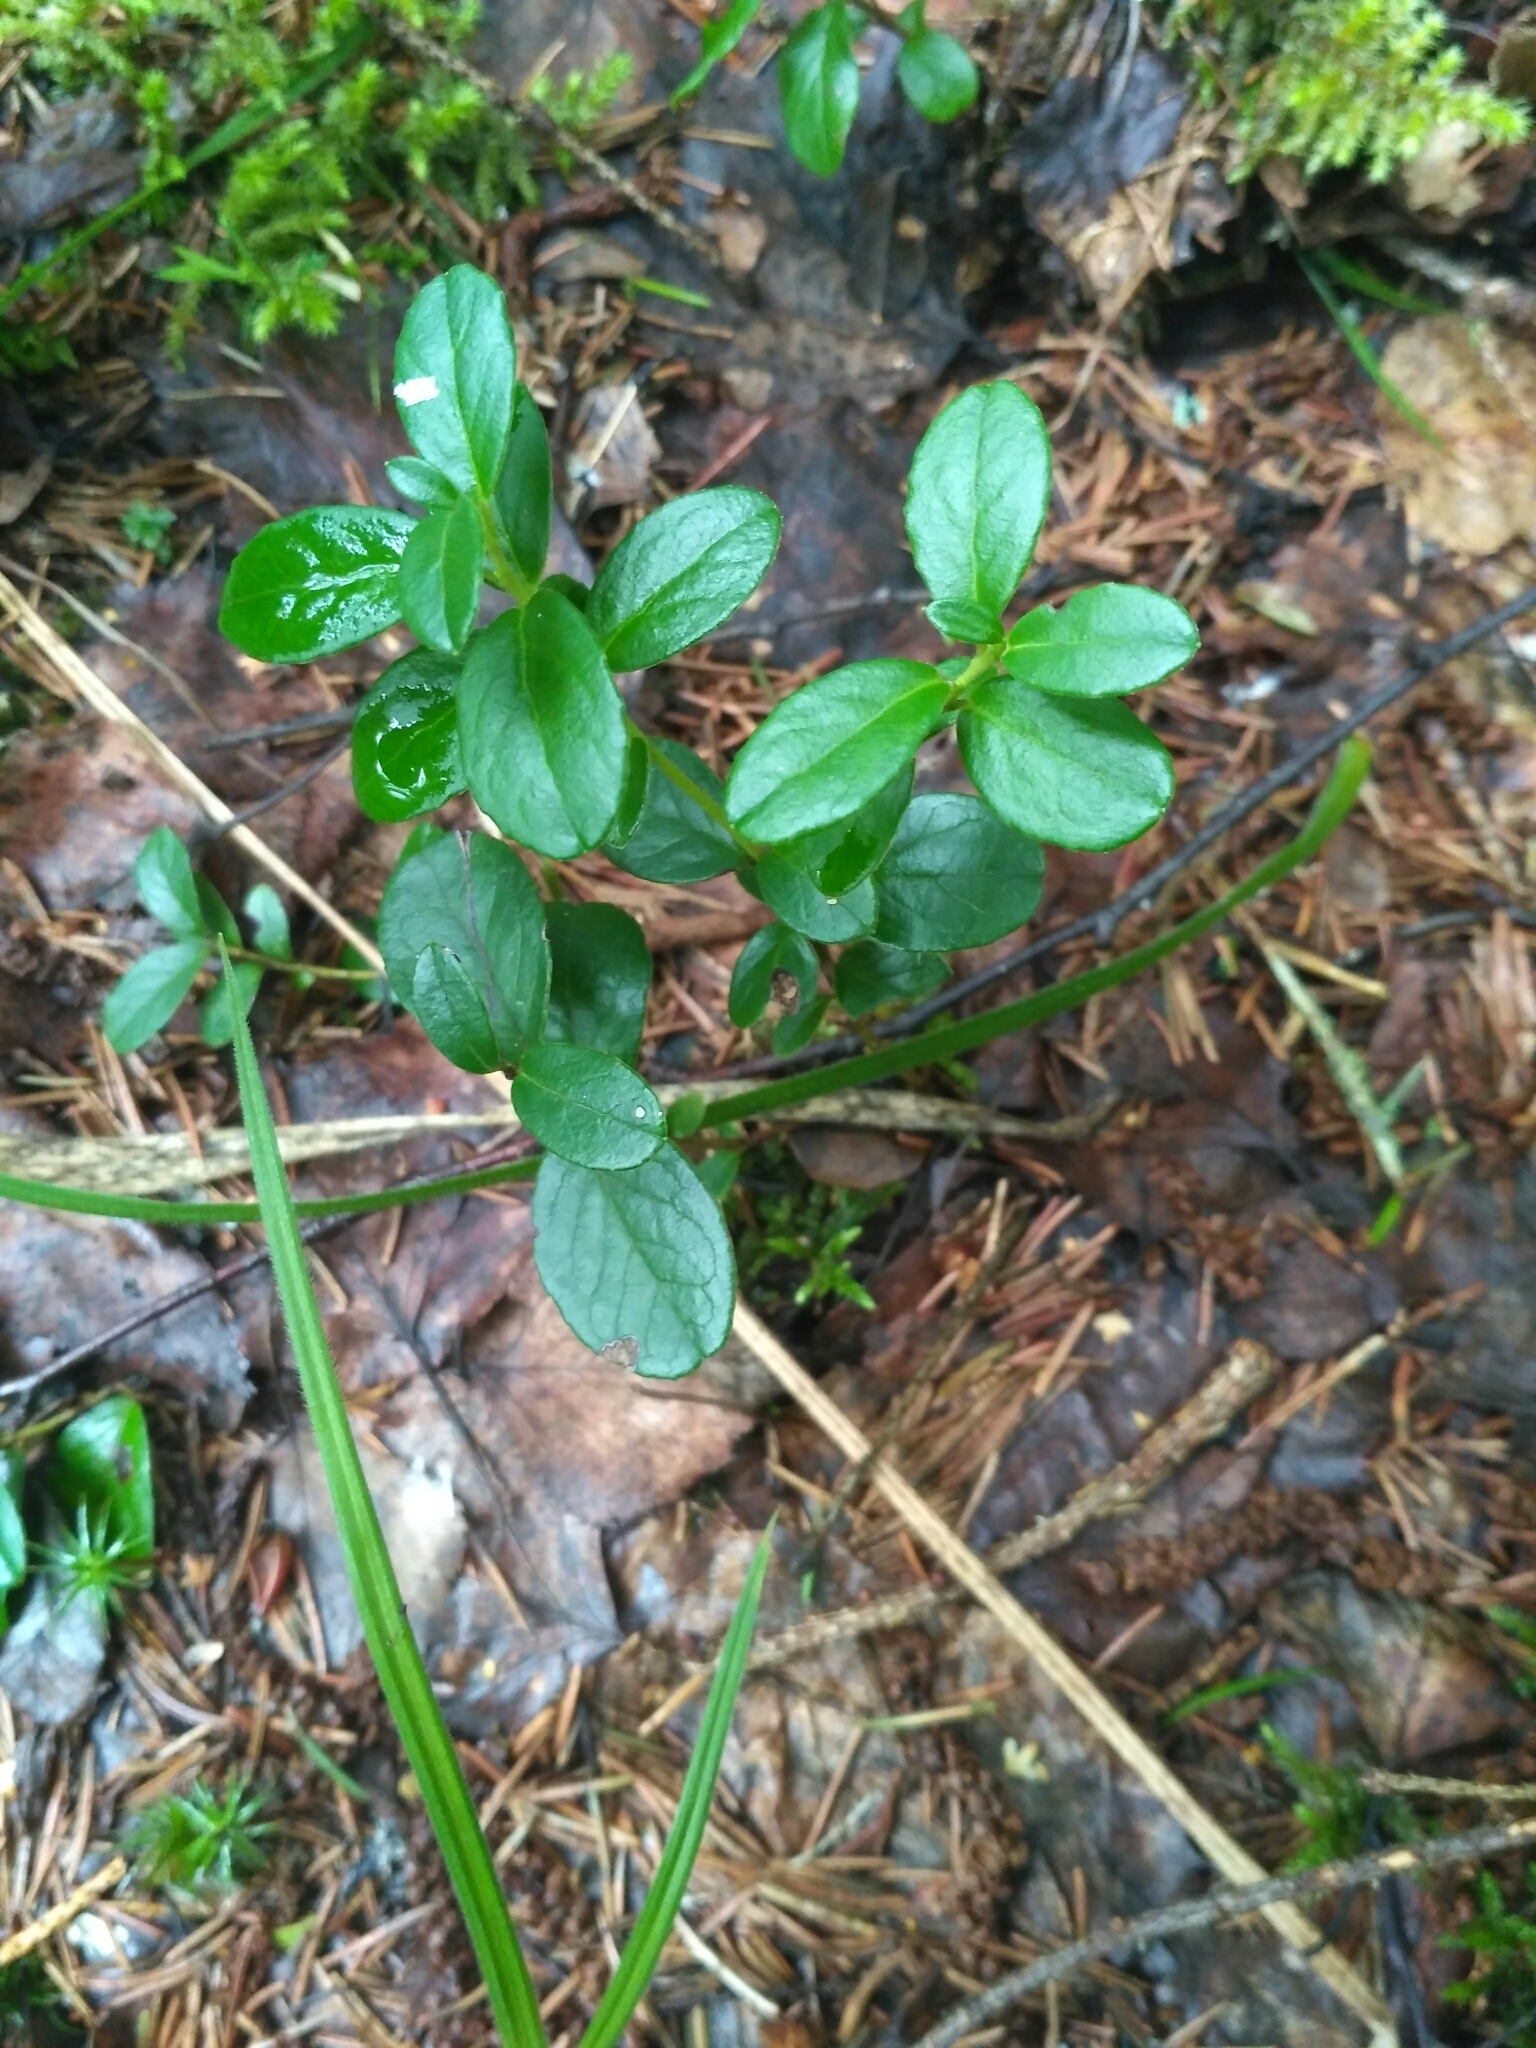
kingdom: Plantae
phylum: Tracheophyta
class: Magnoliopsida
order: Ericales
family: Ericaceae
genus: Vaccinium
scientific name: Vaccinium vitis-idaea
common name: Cowberry
